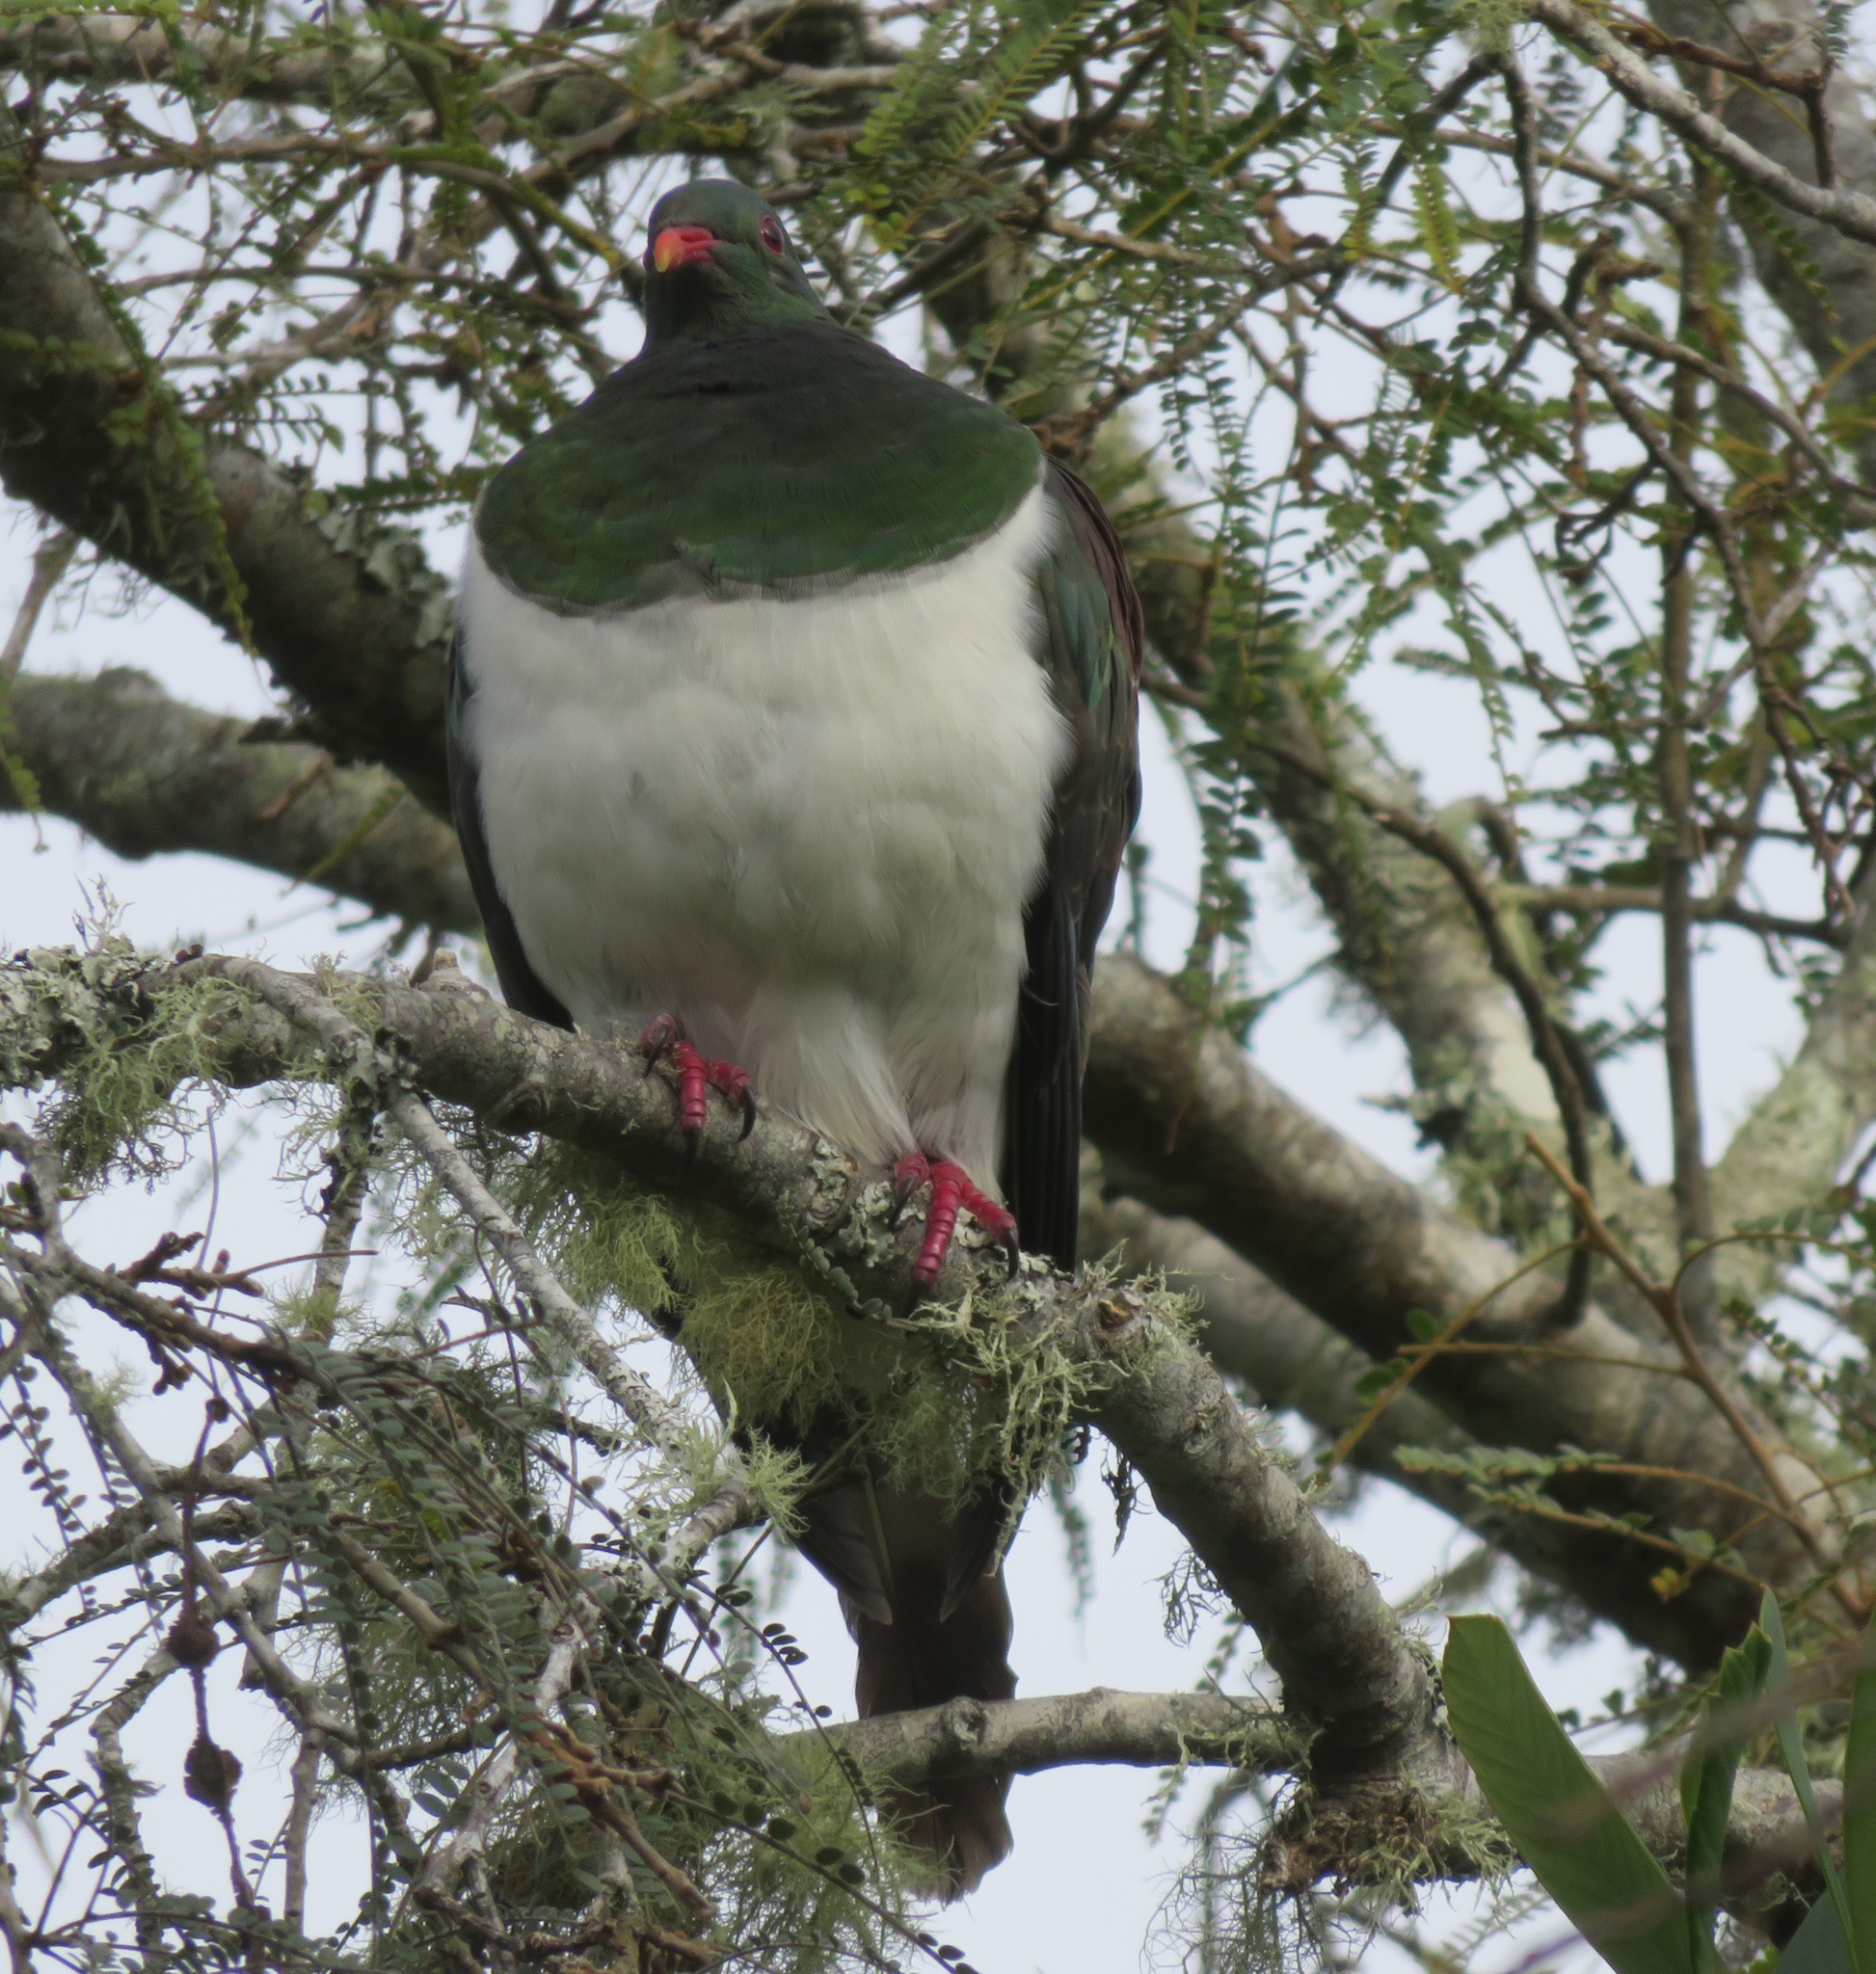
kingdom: Animalia
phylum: Chordata
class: Aves
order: Columbiformes
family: Columbidae
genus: Hemiphaga
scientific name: Hemiphaga novaeseelandiae
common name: New zealand pigeon
